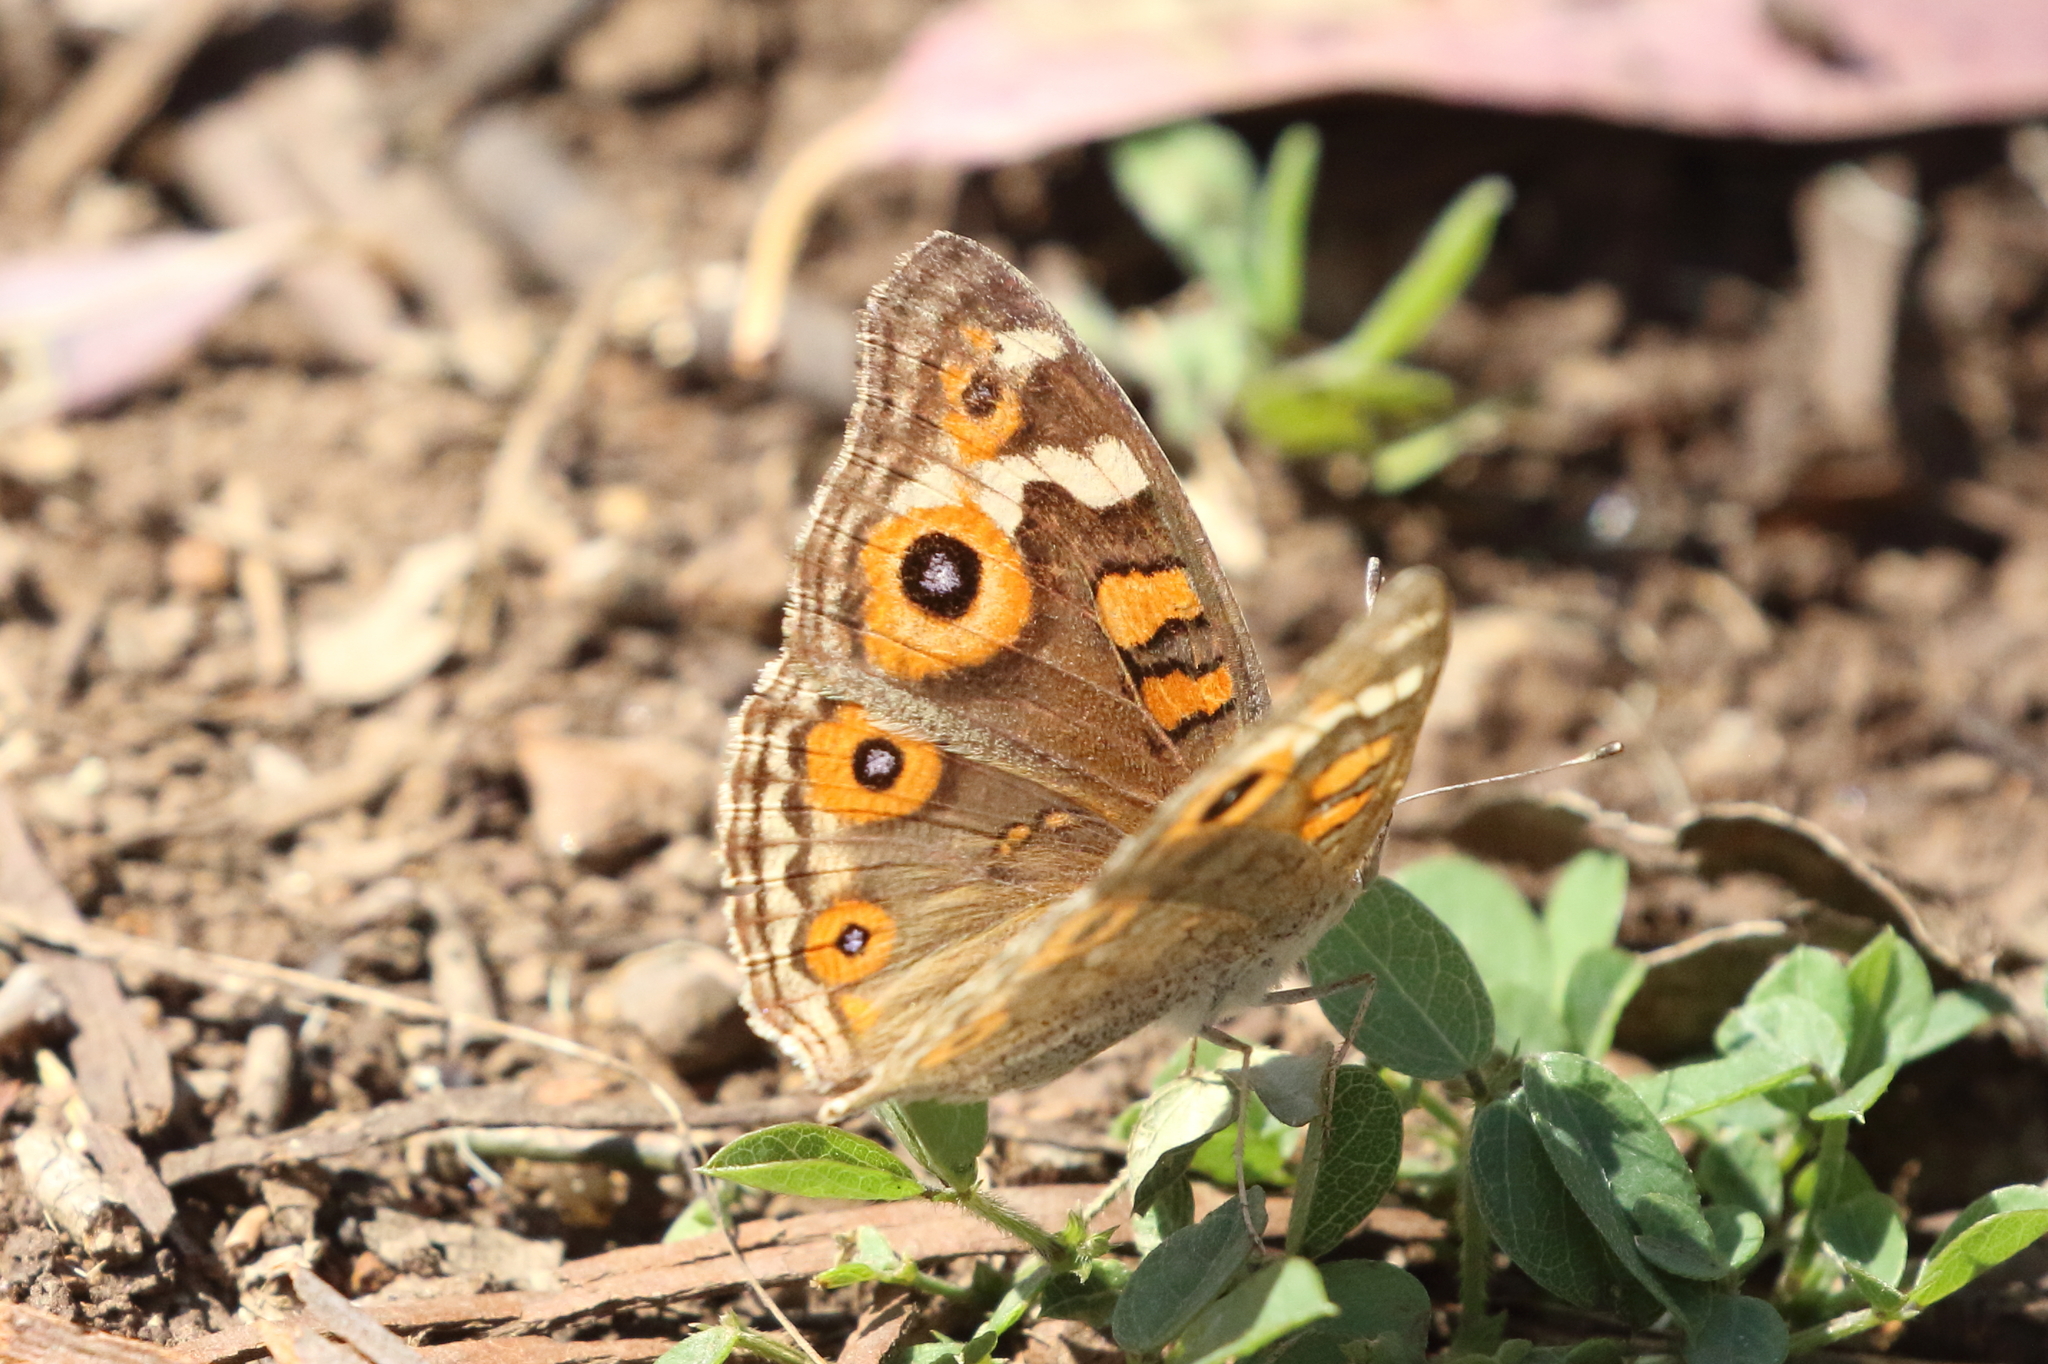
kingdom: Animalia
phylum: Arthropoda
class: Insecta
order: Lepidoptera
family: Nymphalidae
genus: Junonia
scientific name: Junonia villida
